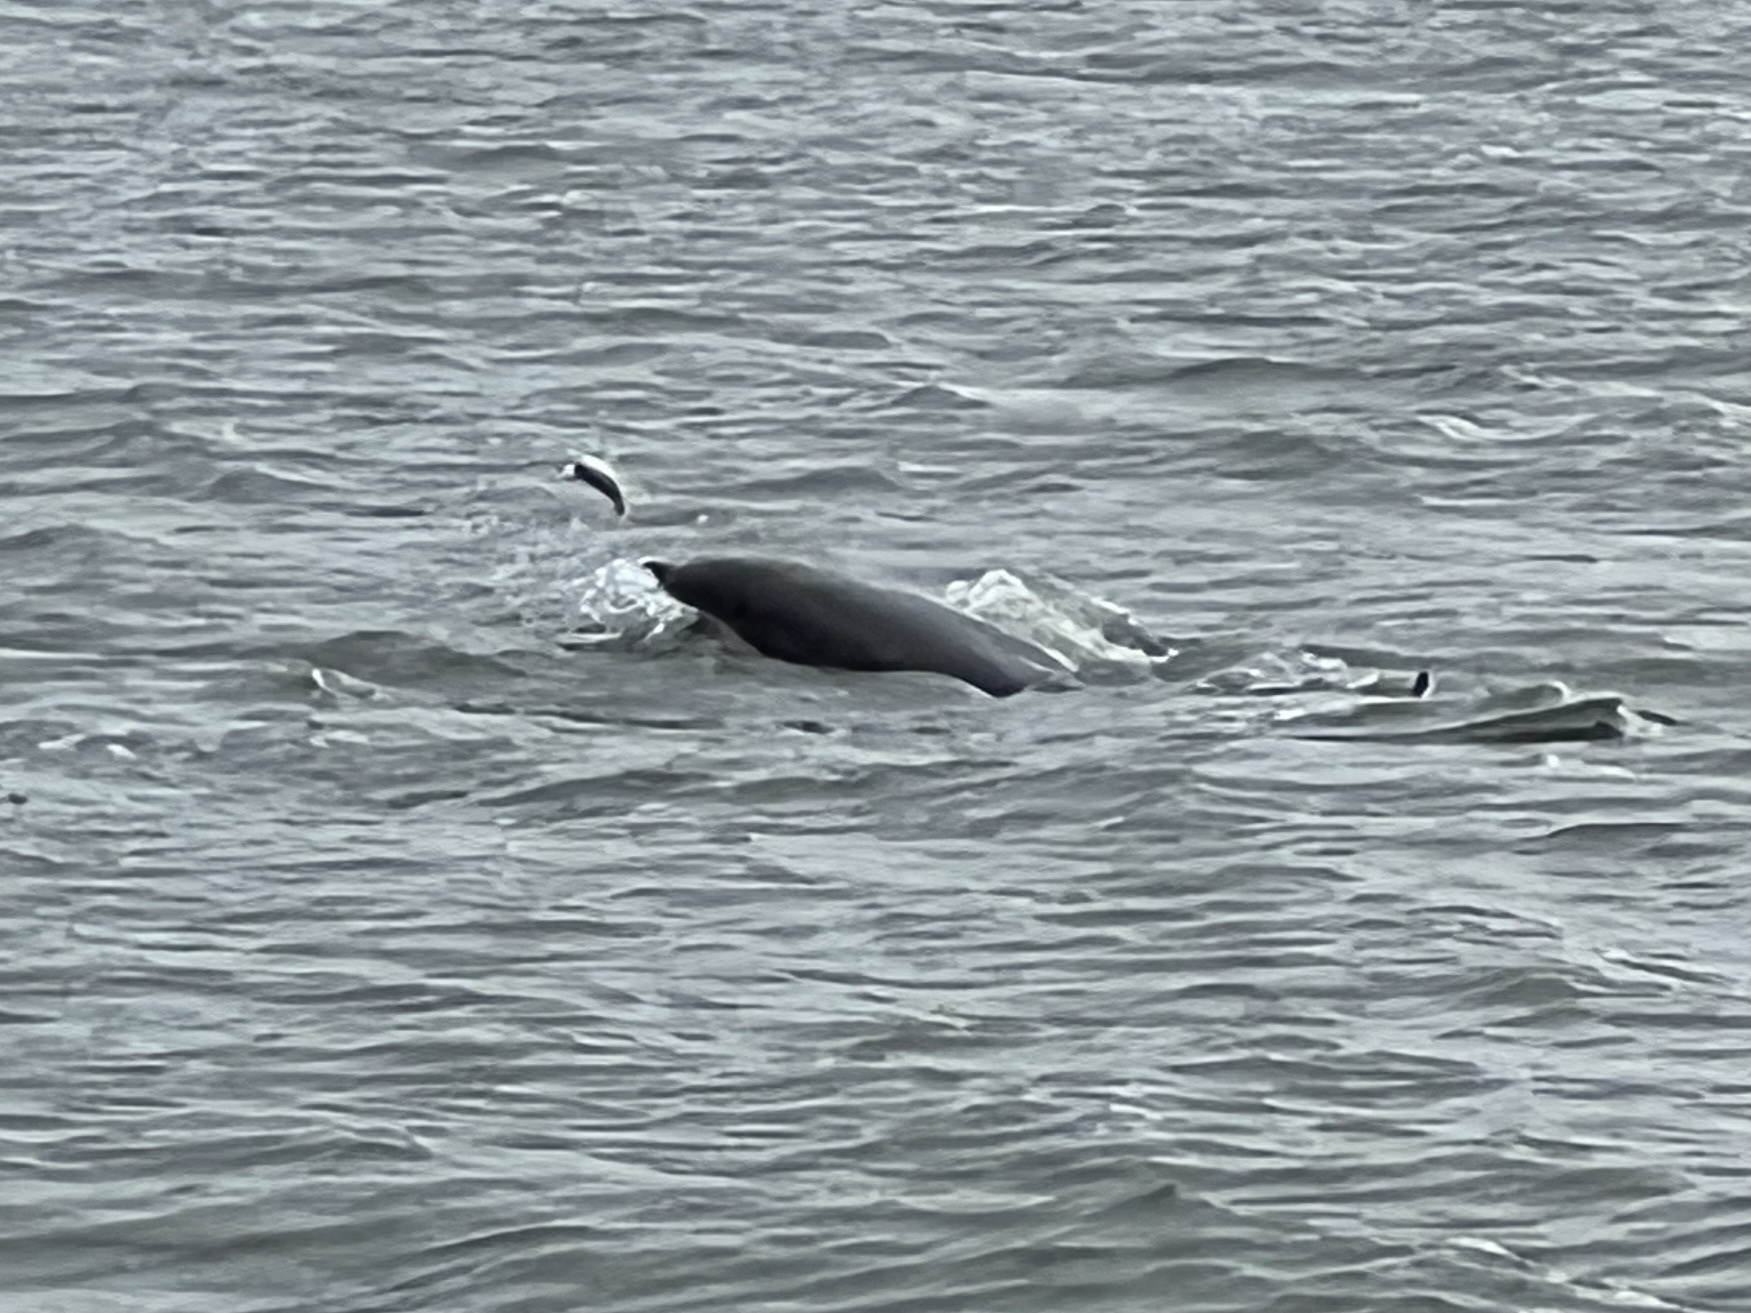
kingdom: Animalia
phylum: Chordata
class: Mammalia
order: Cetacea
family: Delphinidae
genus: Tursiops
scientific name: Tursiops truncatus
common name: Bottlenose dolphin
